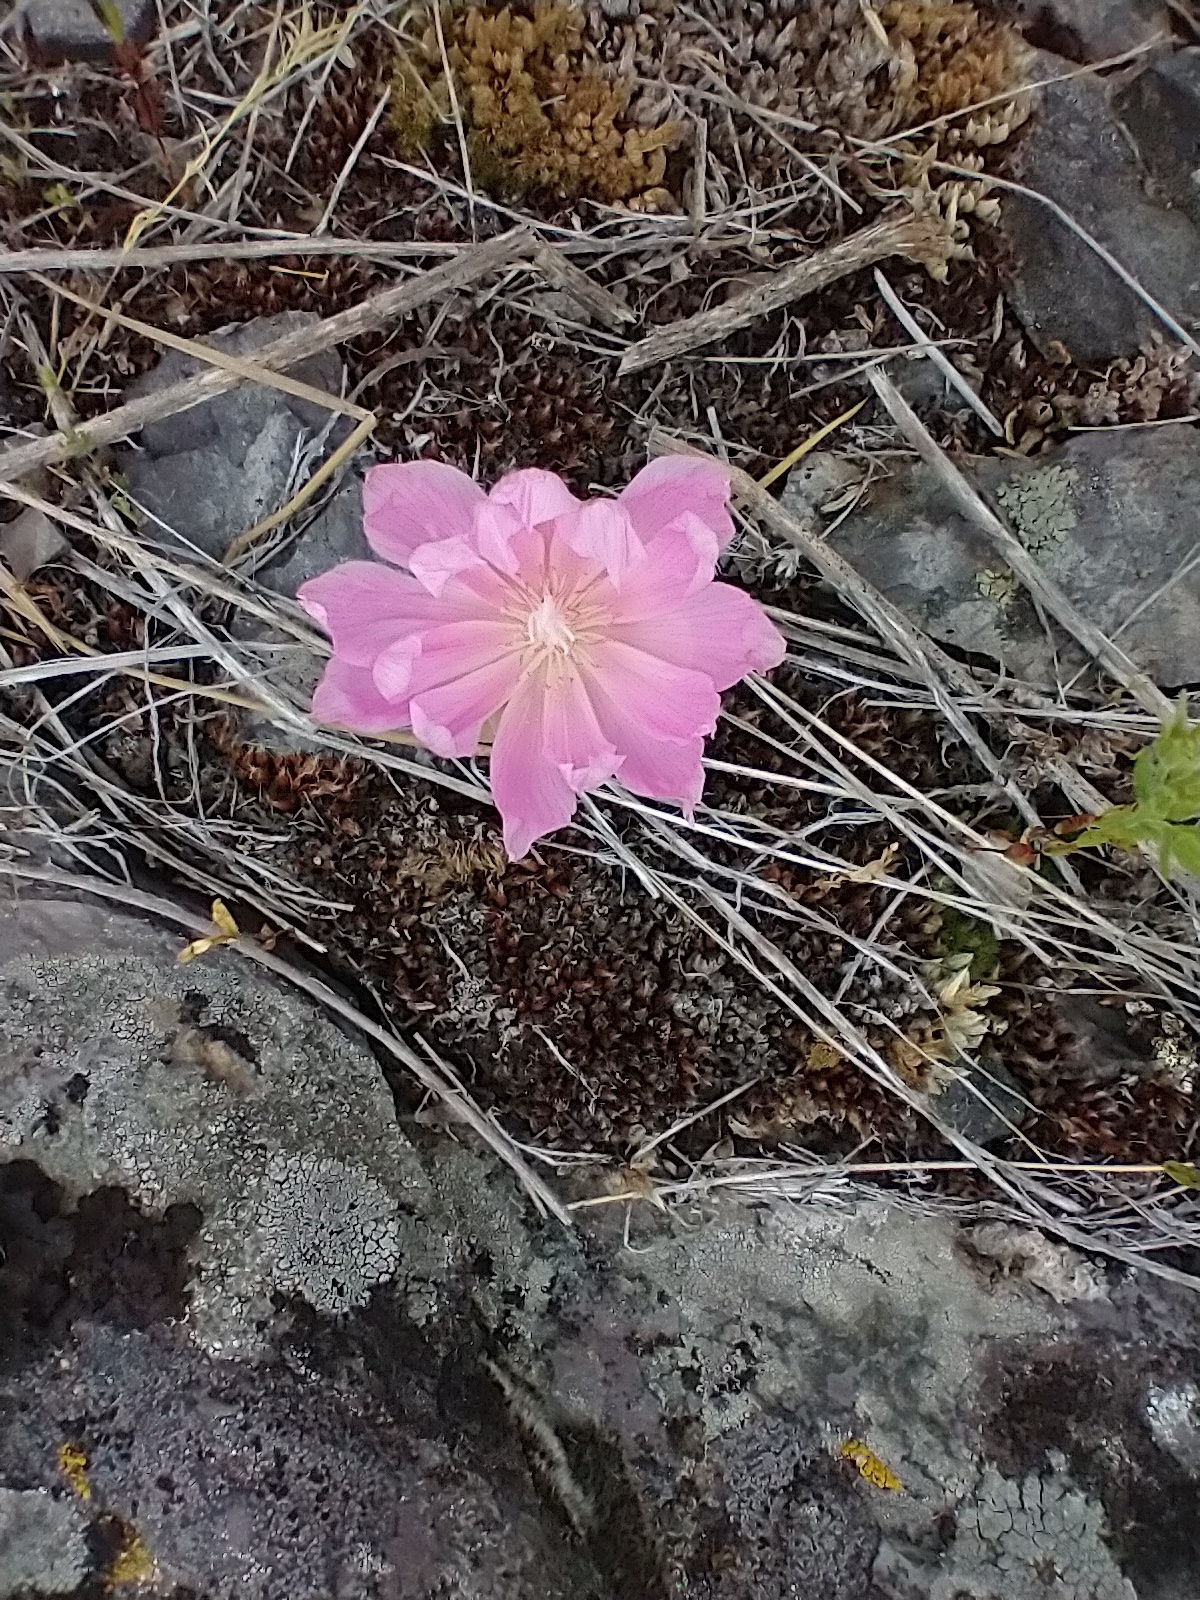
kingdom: Plantae
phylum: Tracheophyta
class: Magnoliopsida
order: Caryophyllales
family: Montiaceae
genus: Lewisia
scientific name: Lewisia rediviva
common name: Bitter-root
